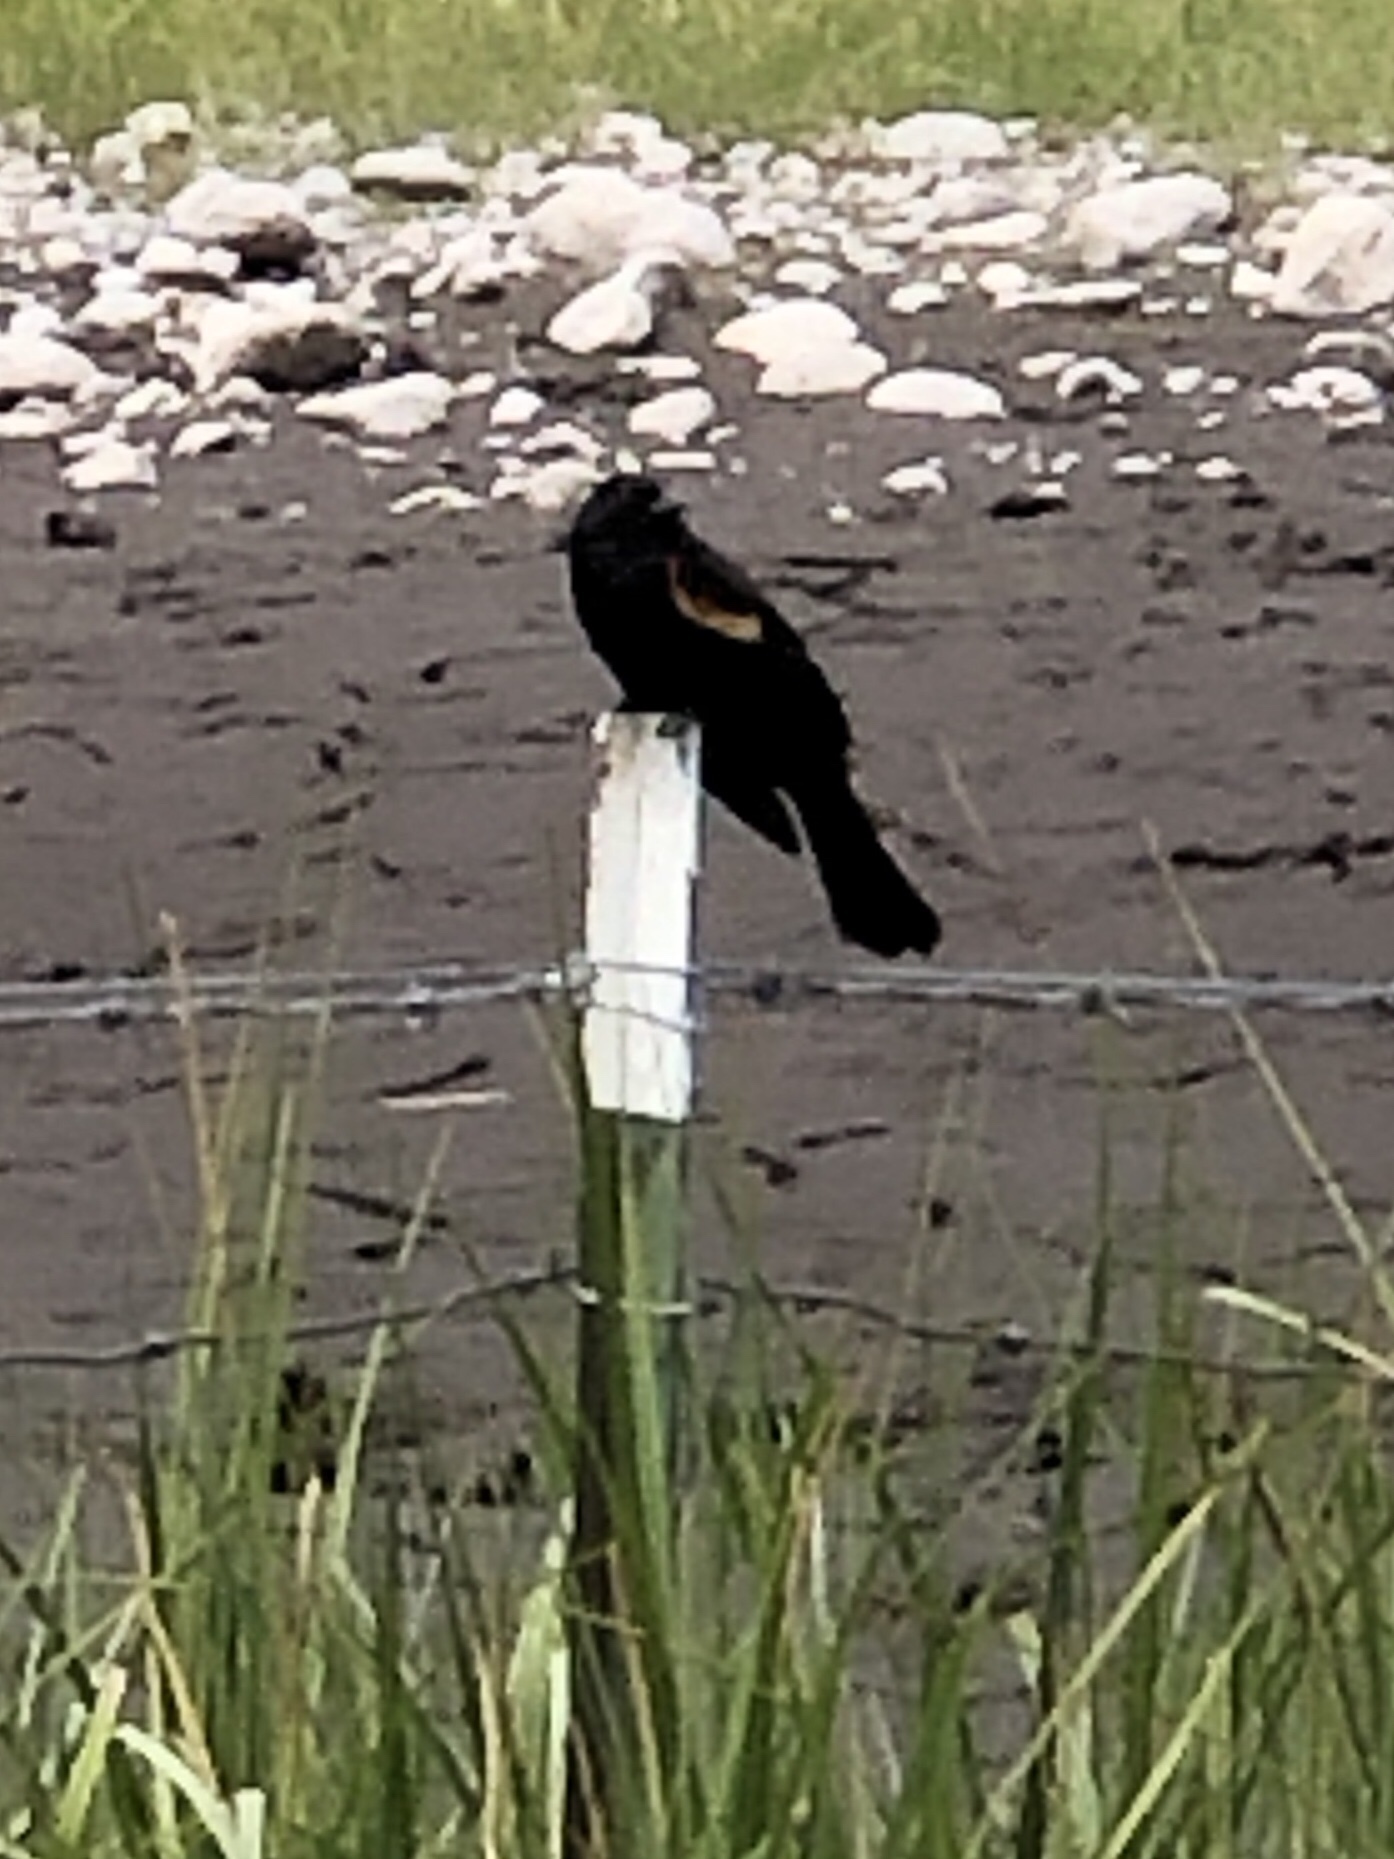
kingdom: Animalia
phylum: Chordata
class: Aves
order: Passeriformes
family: Icteridae
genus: Agelaius
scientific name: Agelaius phoeniceus
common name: Red-winged blackbird
